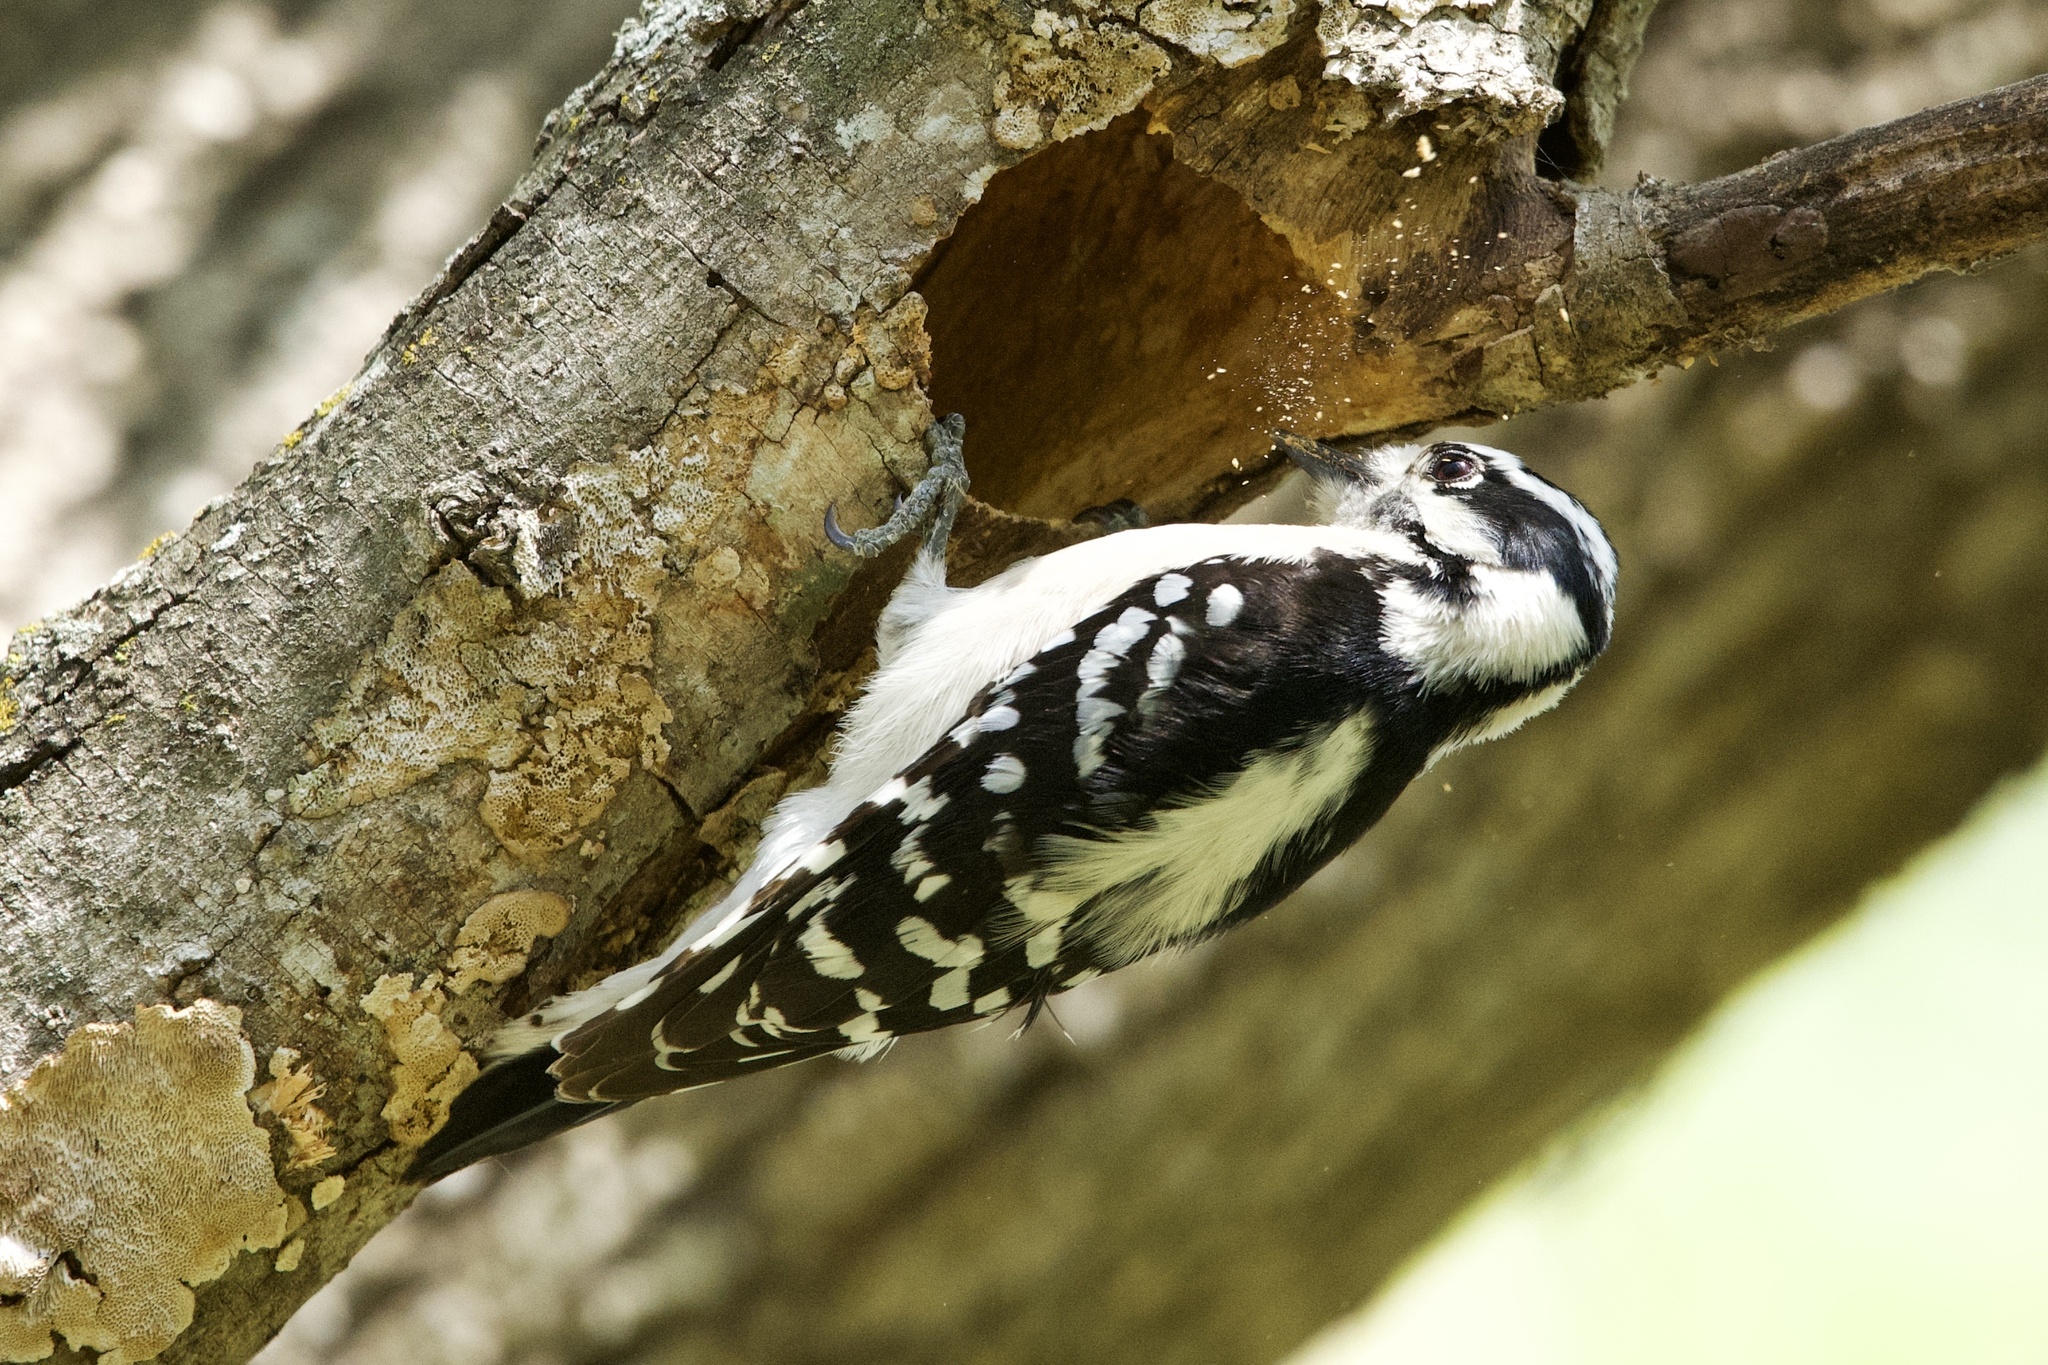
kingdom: Animalia
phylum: Chordata
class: Aves
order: Piciformes
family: Picidae
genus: Dryobates
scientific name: Dryobates pubescens
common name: Downy woodpecker
